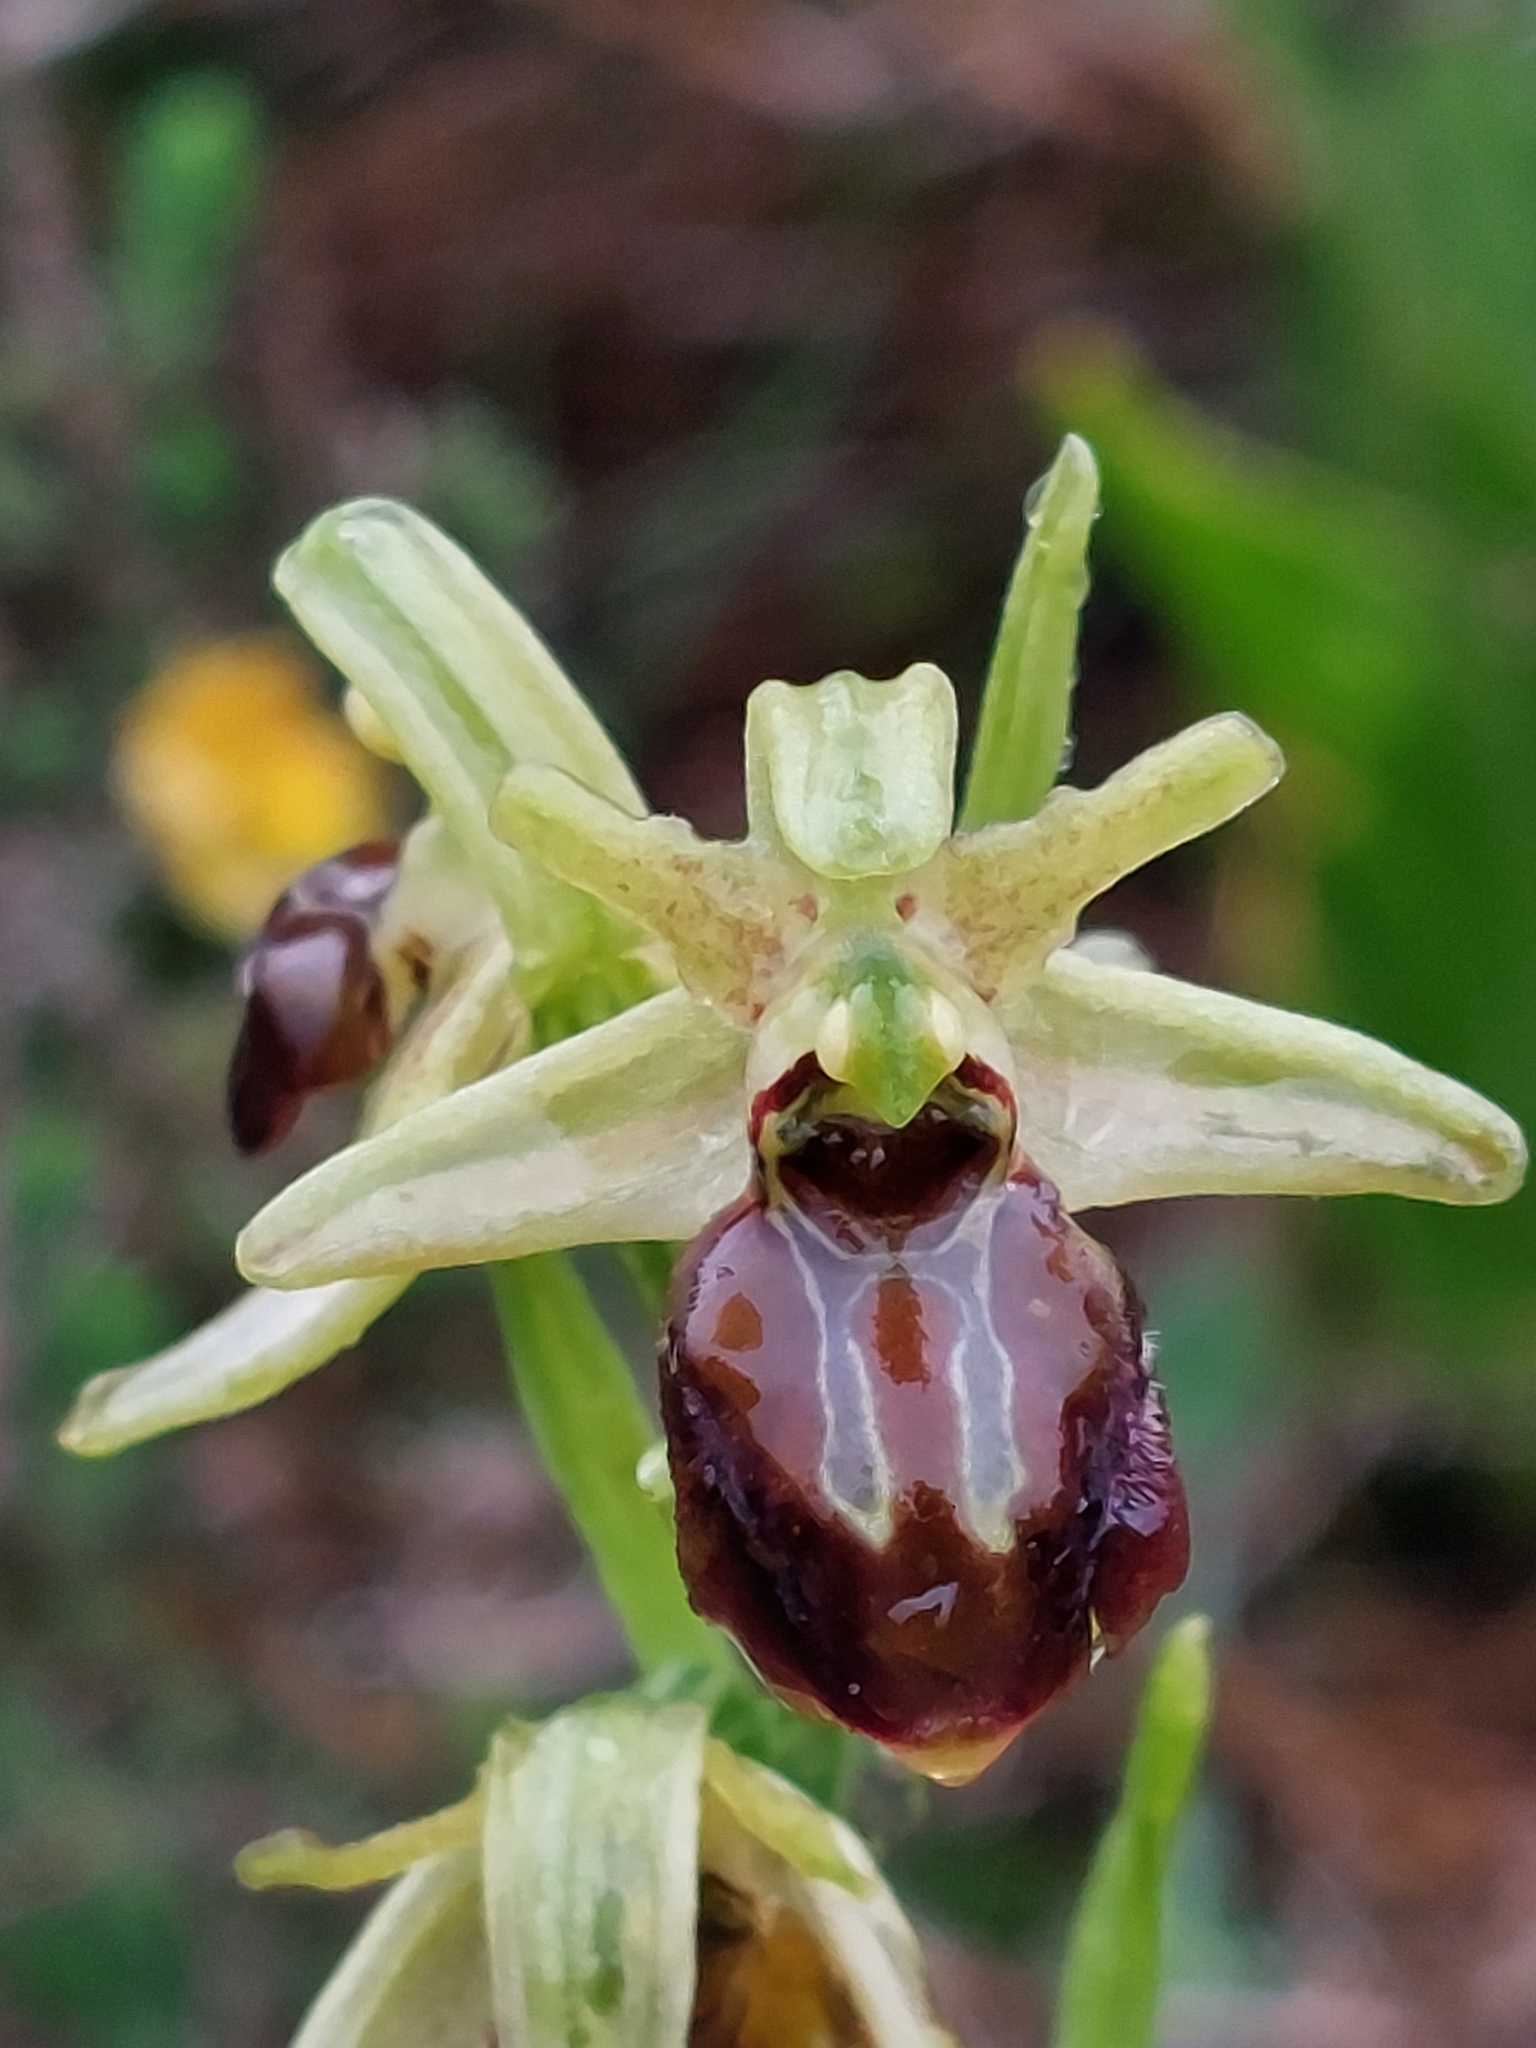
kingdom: Plantae
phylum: Tracheophyta
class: Liliopsida
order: Asparagales
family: Orchidaceae
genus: Ophrys
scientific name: Ophrys sphegodes
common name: Early spider-orchid
